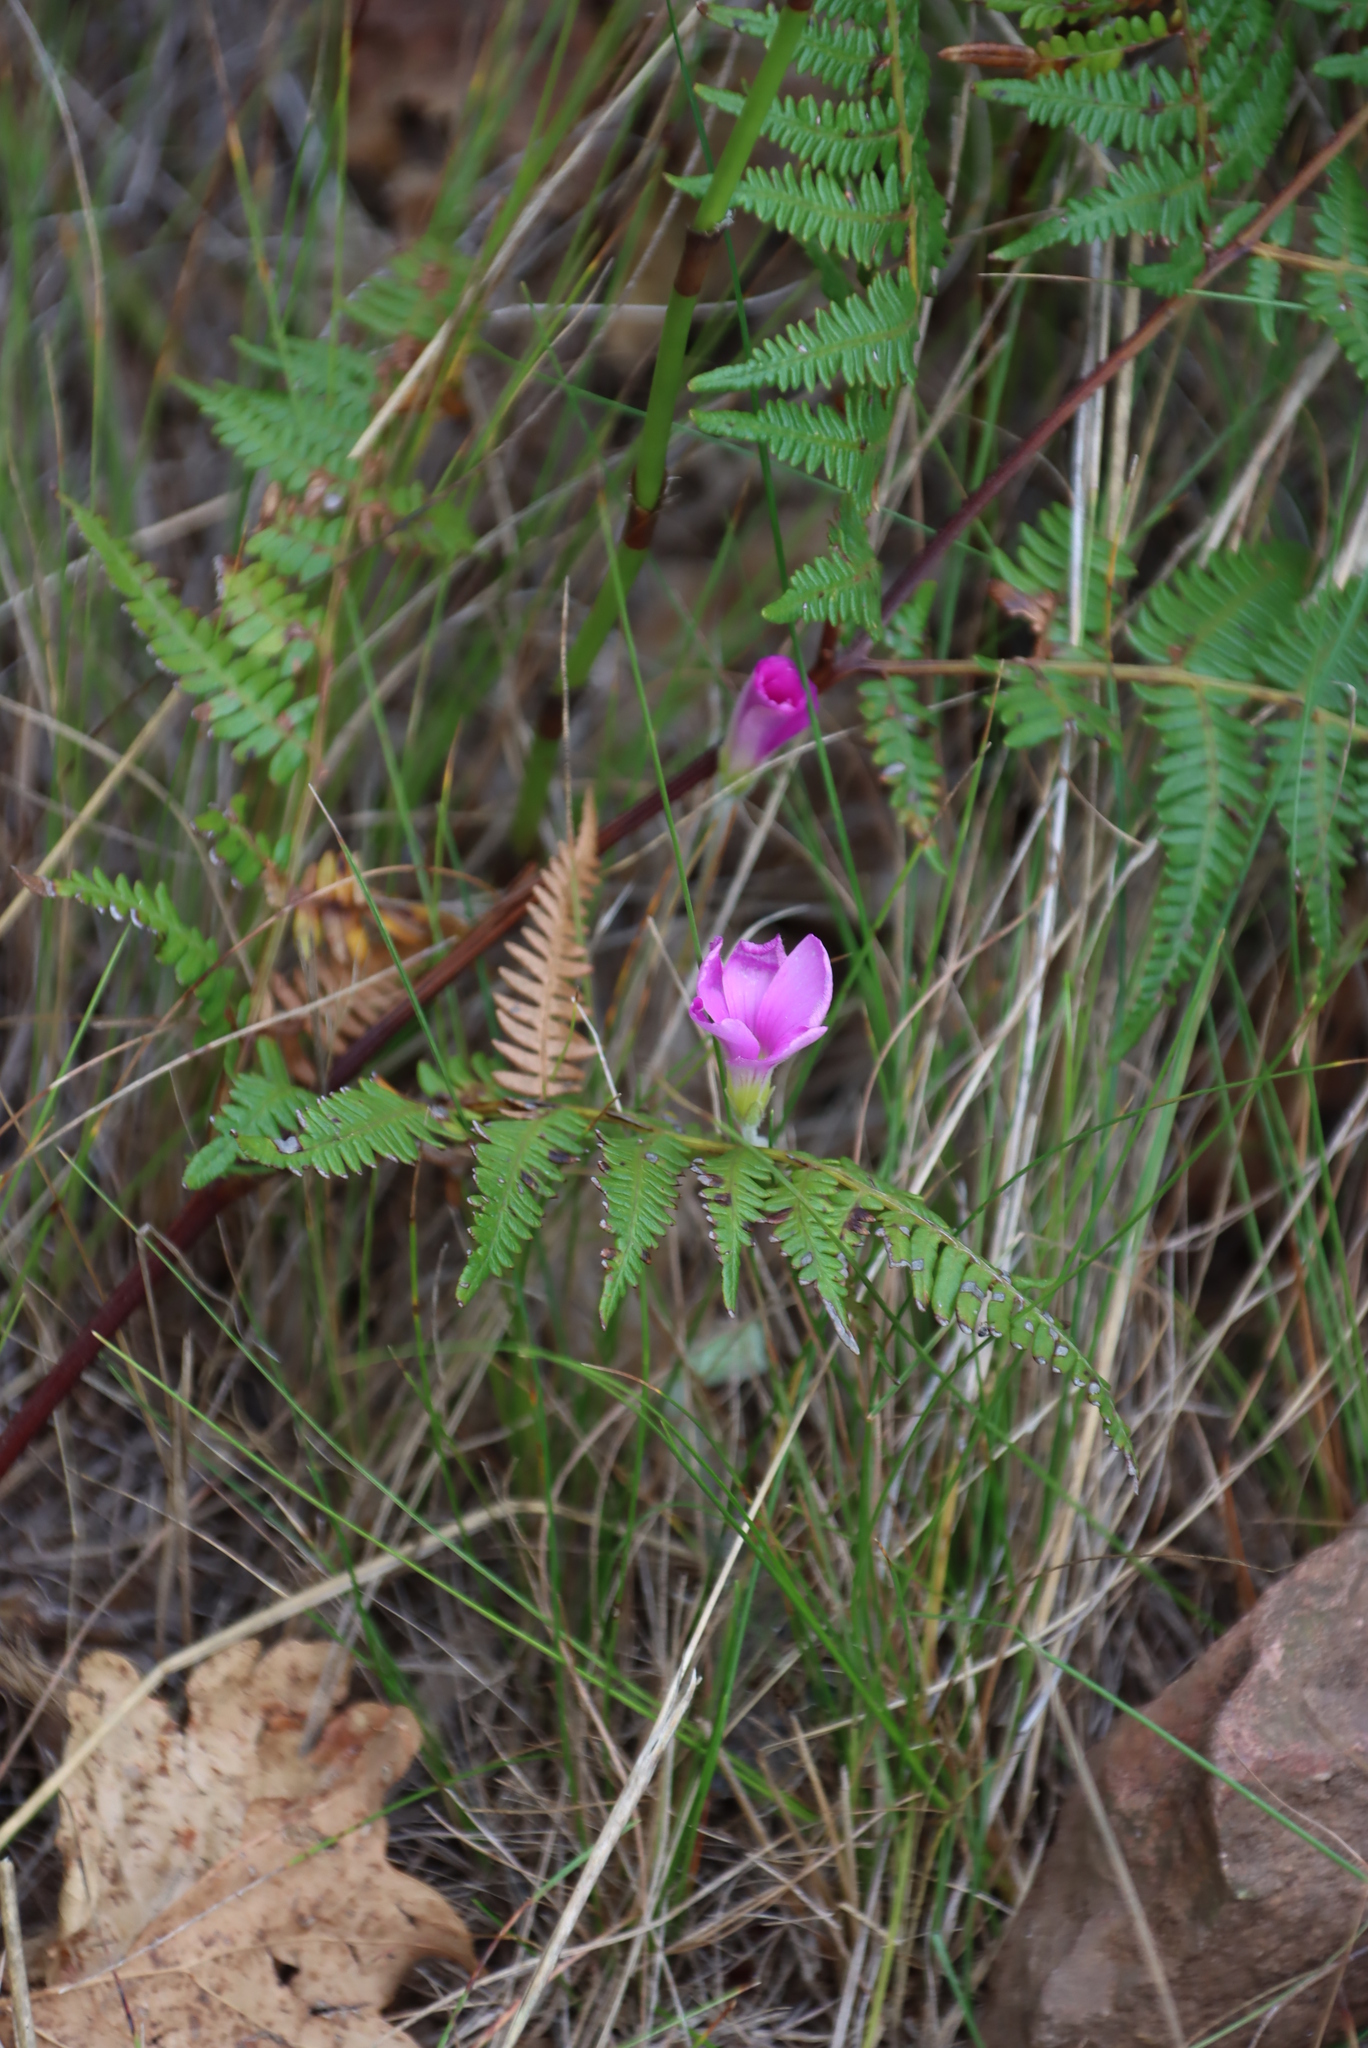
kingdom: Plantae
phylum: Tracheophyta
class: Magnoliopsida
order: Oxalidales
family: Oxalidaceae
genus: Oxalis
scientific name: Oxalis truncatula
